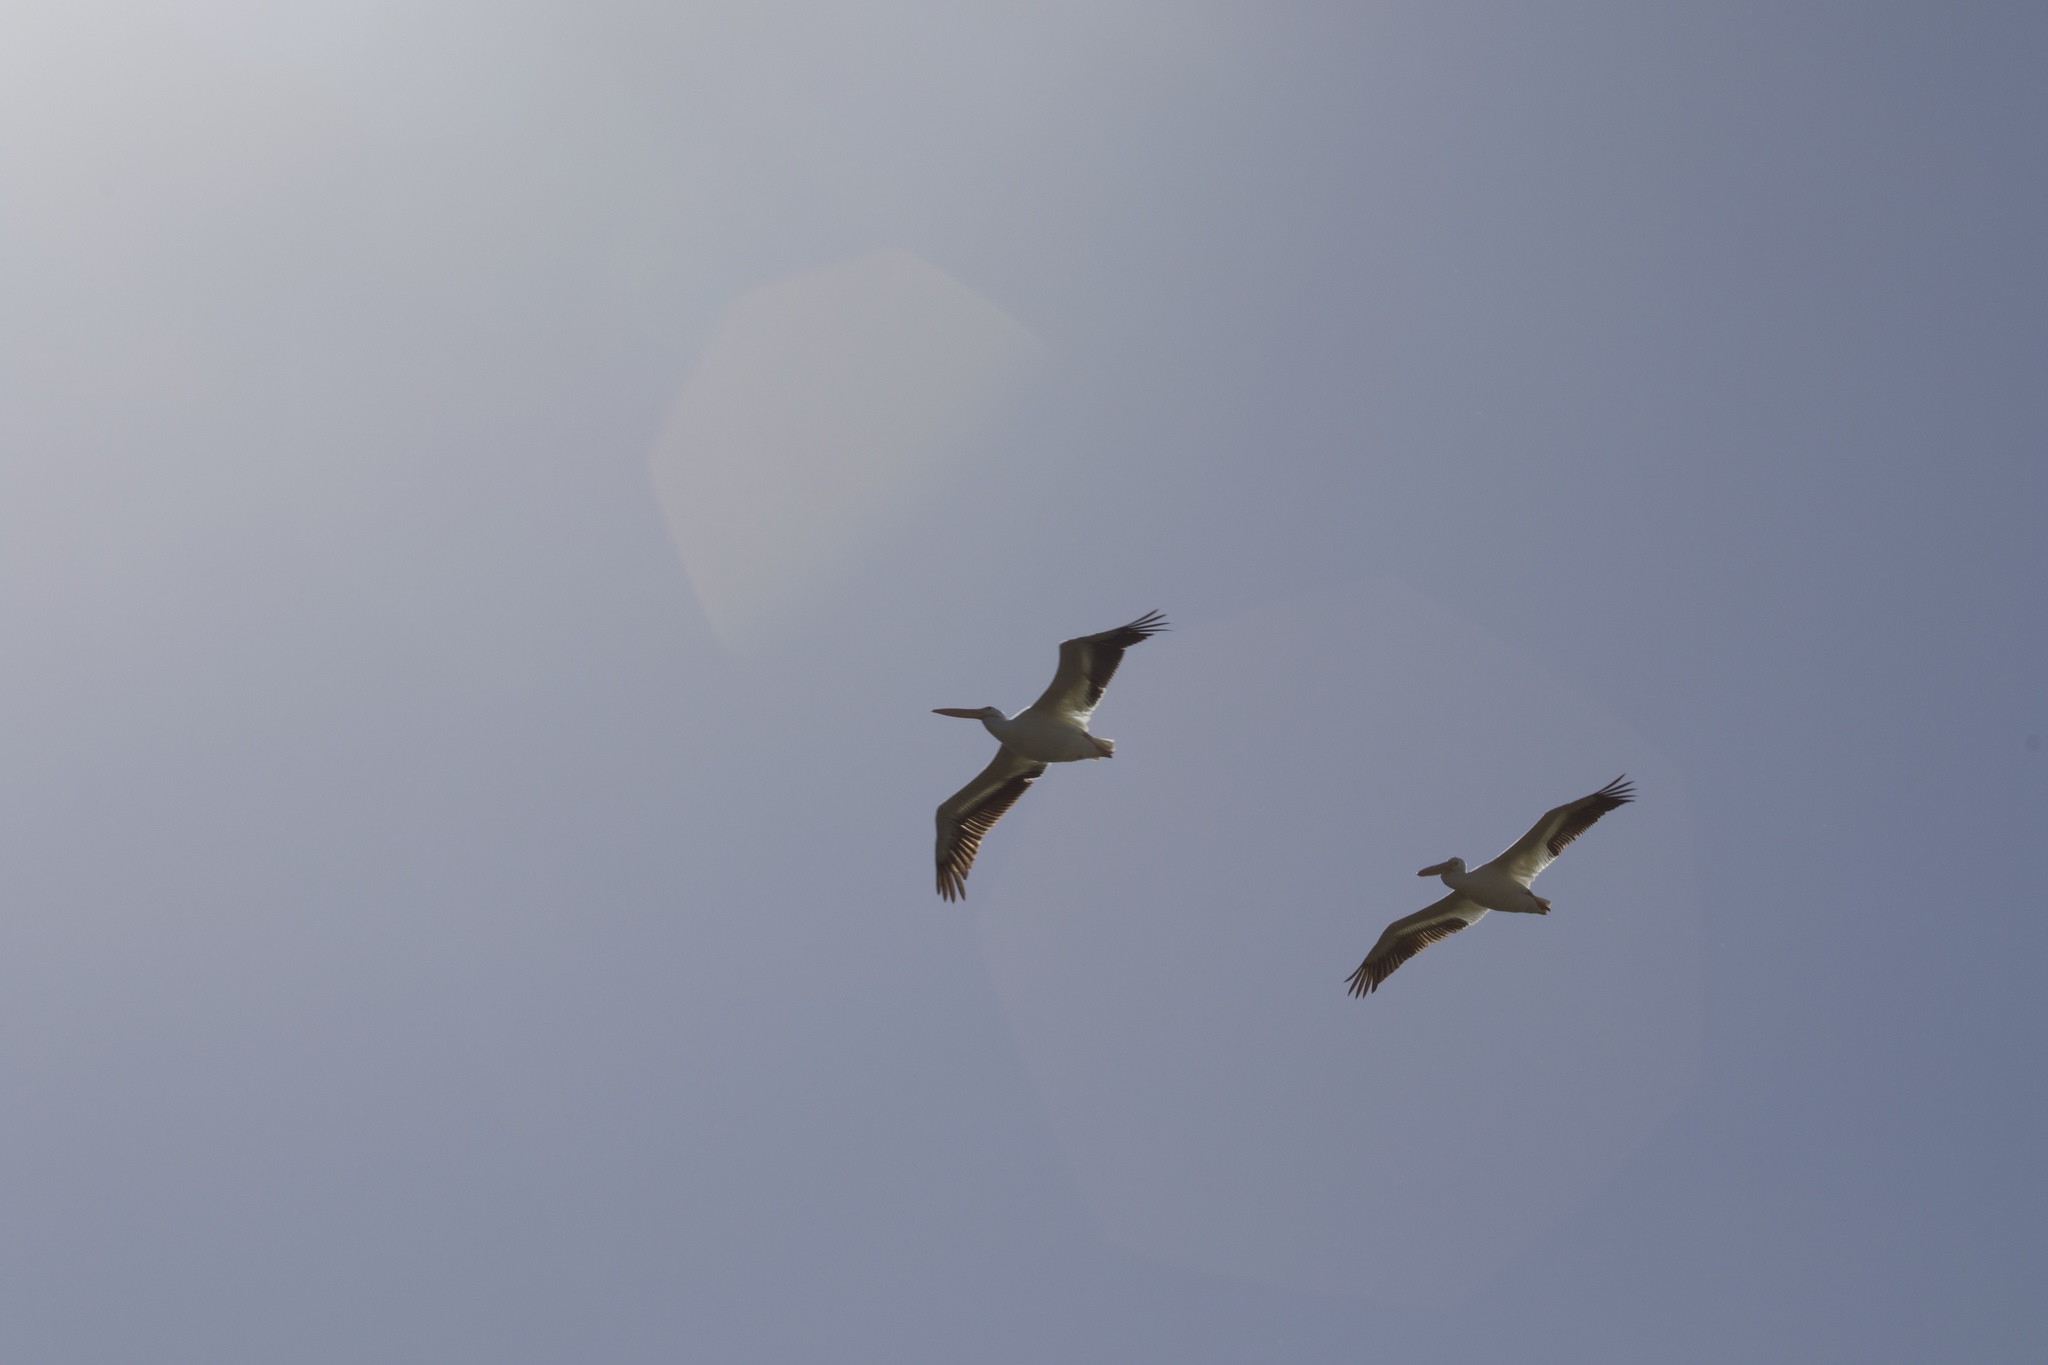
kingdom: Animalia
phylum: Chordata
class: Aves
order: Pelecaniformes
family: Pelecanidae
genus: Pelecanus
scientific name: Pelecanus erythrorhynchos
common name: American white pelican
